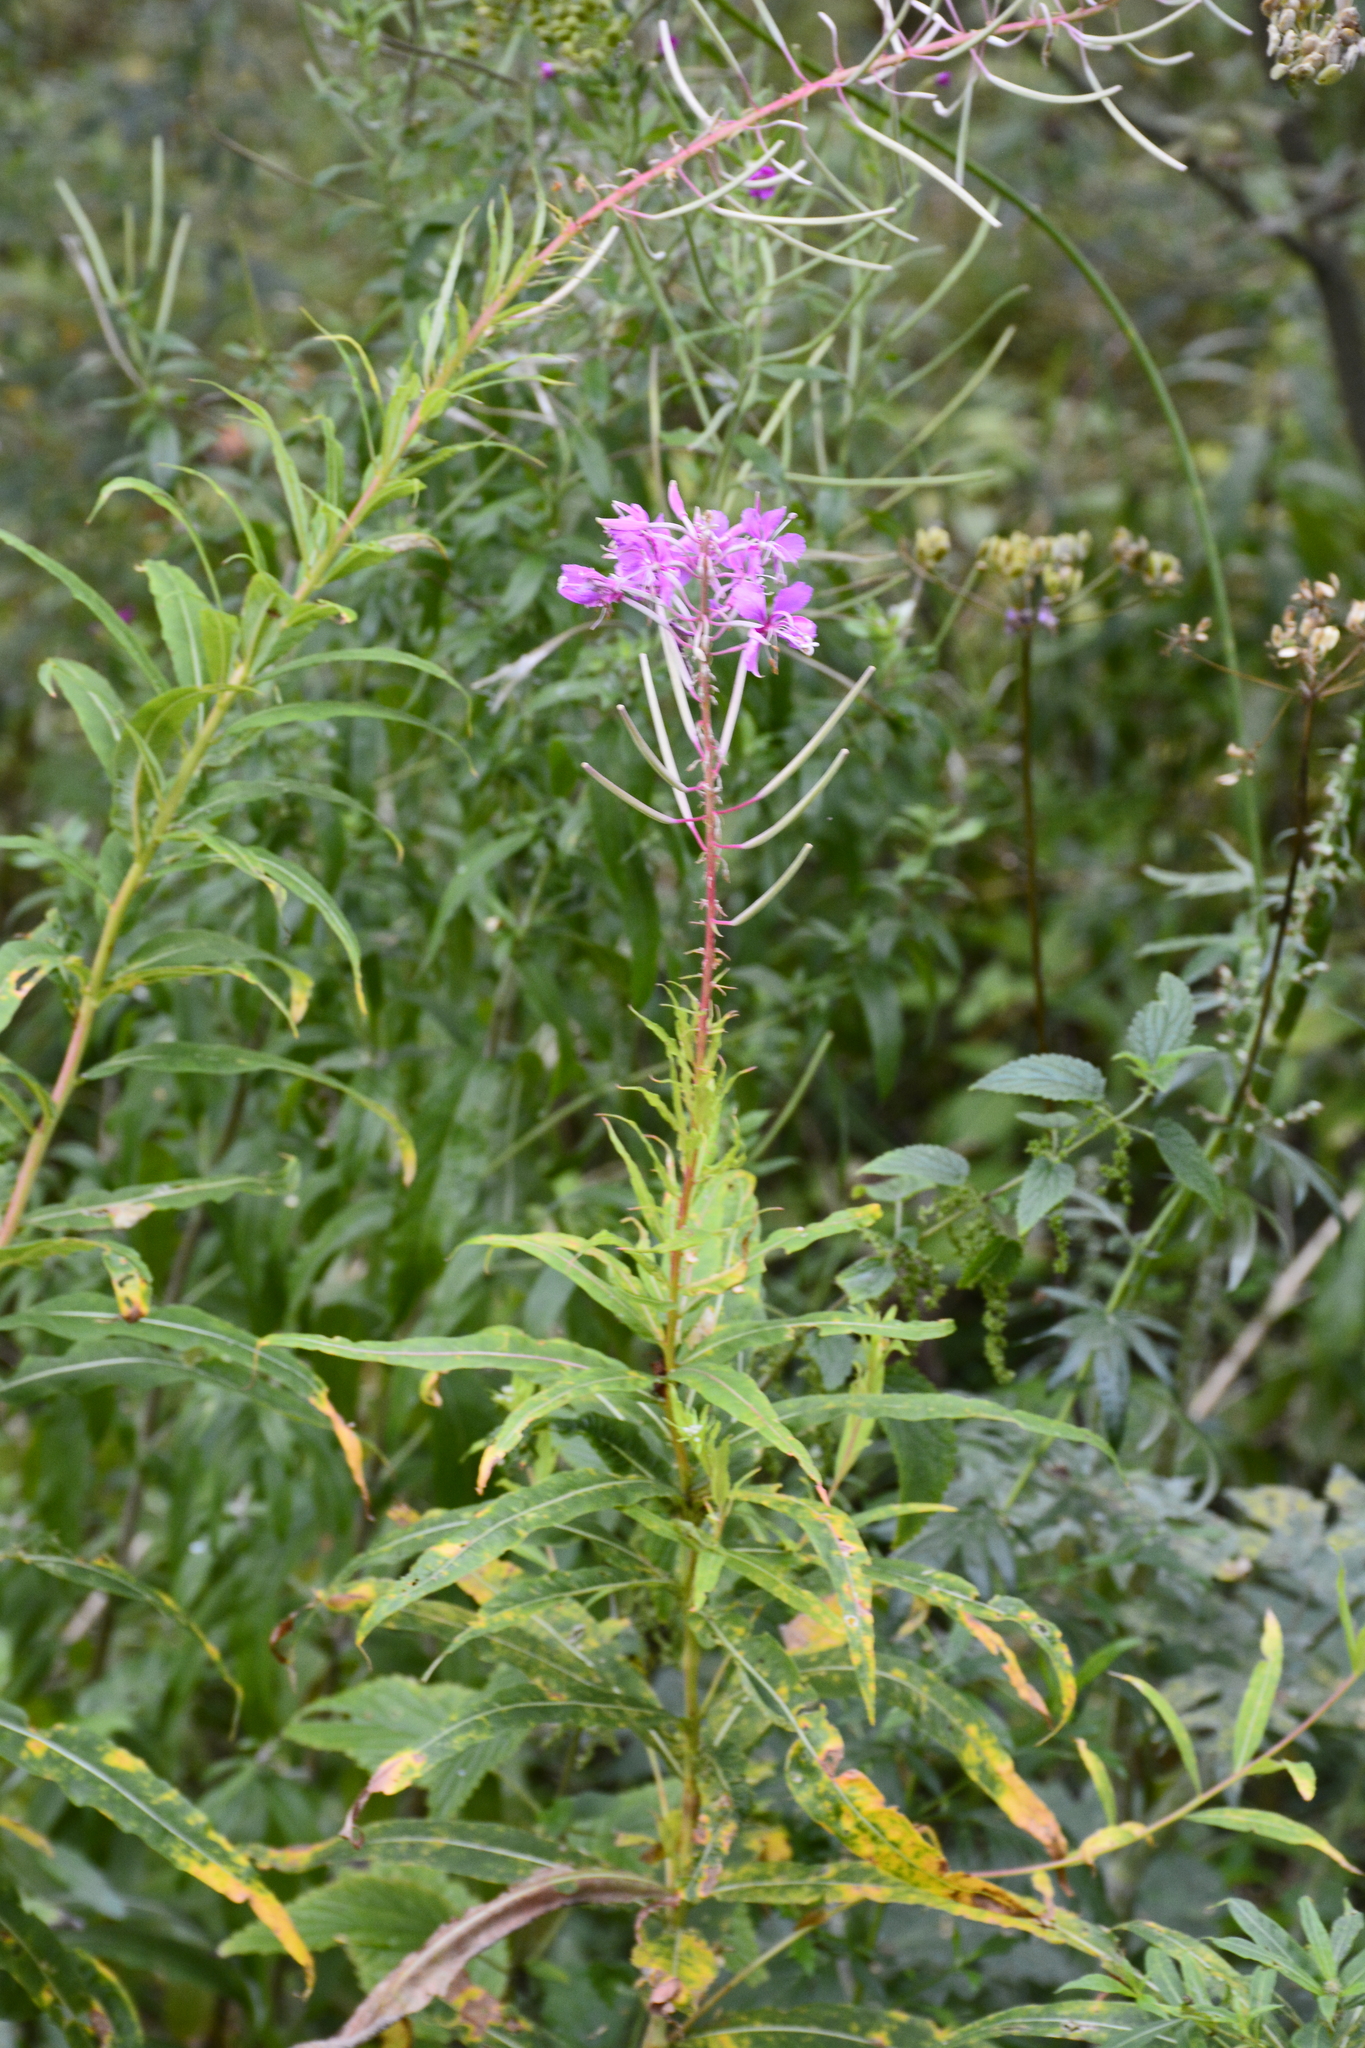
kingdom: Plantae
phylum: Tracheophyta
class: Magnoliopsida
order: Myrtales
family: Onagraceae
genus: Chamaenerion
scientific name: Chamaenerion angustifolium
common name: Fireweed
